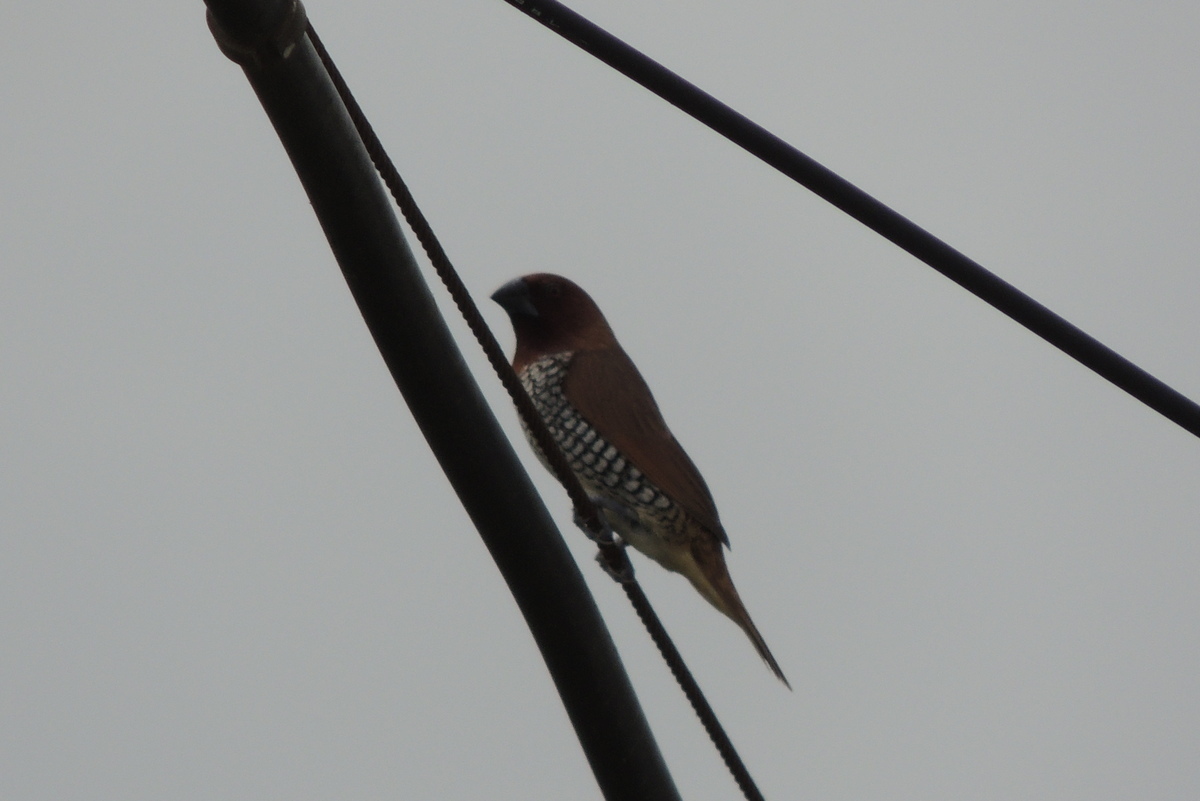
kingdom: Animalia
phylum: Chordata
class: Aves
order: Passeriformes
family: Estrildidae
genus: Lonchura
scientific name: Lonchura punctulata
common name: Scaly-breasted munia
